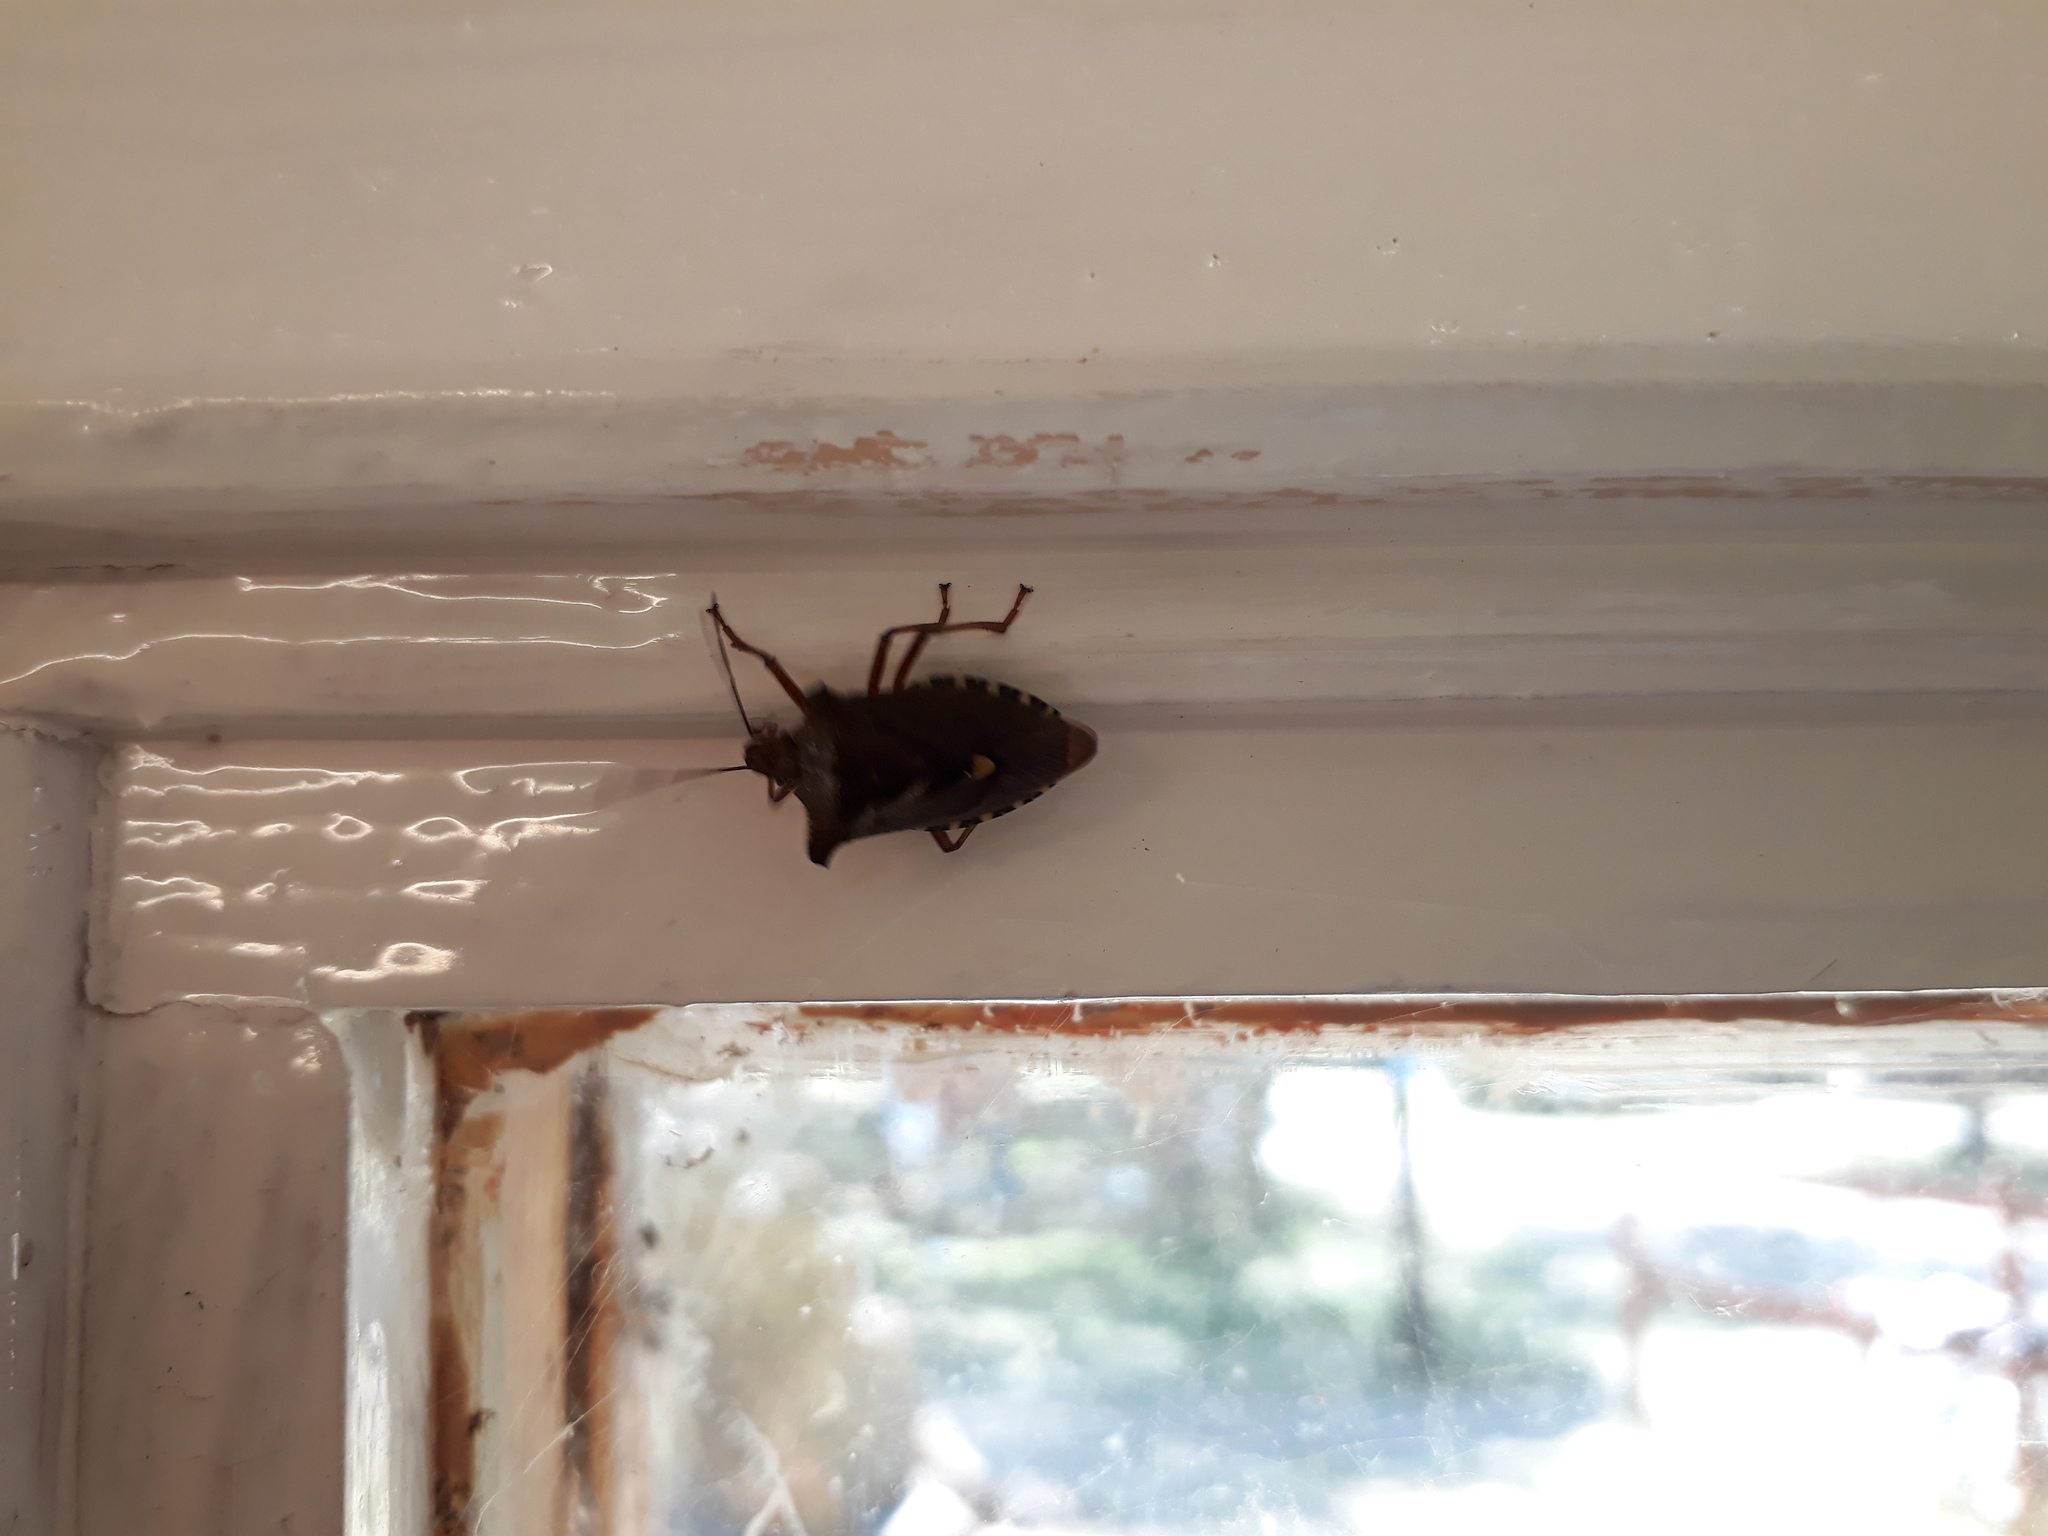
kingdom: Animalia
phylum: Arthropoda
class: Insecta
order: Hemiptera
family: Pentatomidae
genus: Pentatoma
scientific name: Pentatoma rufipes
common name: Forest bug
